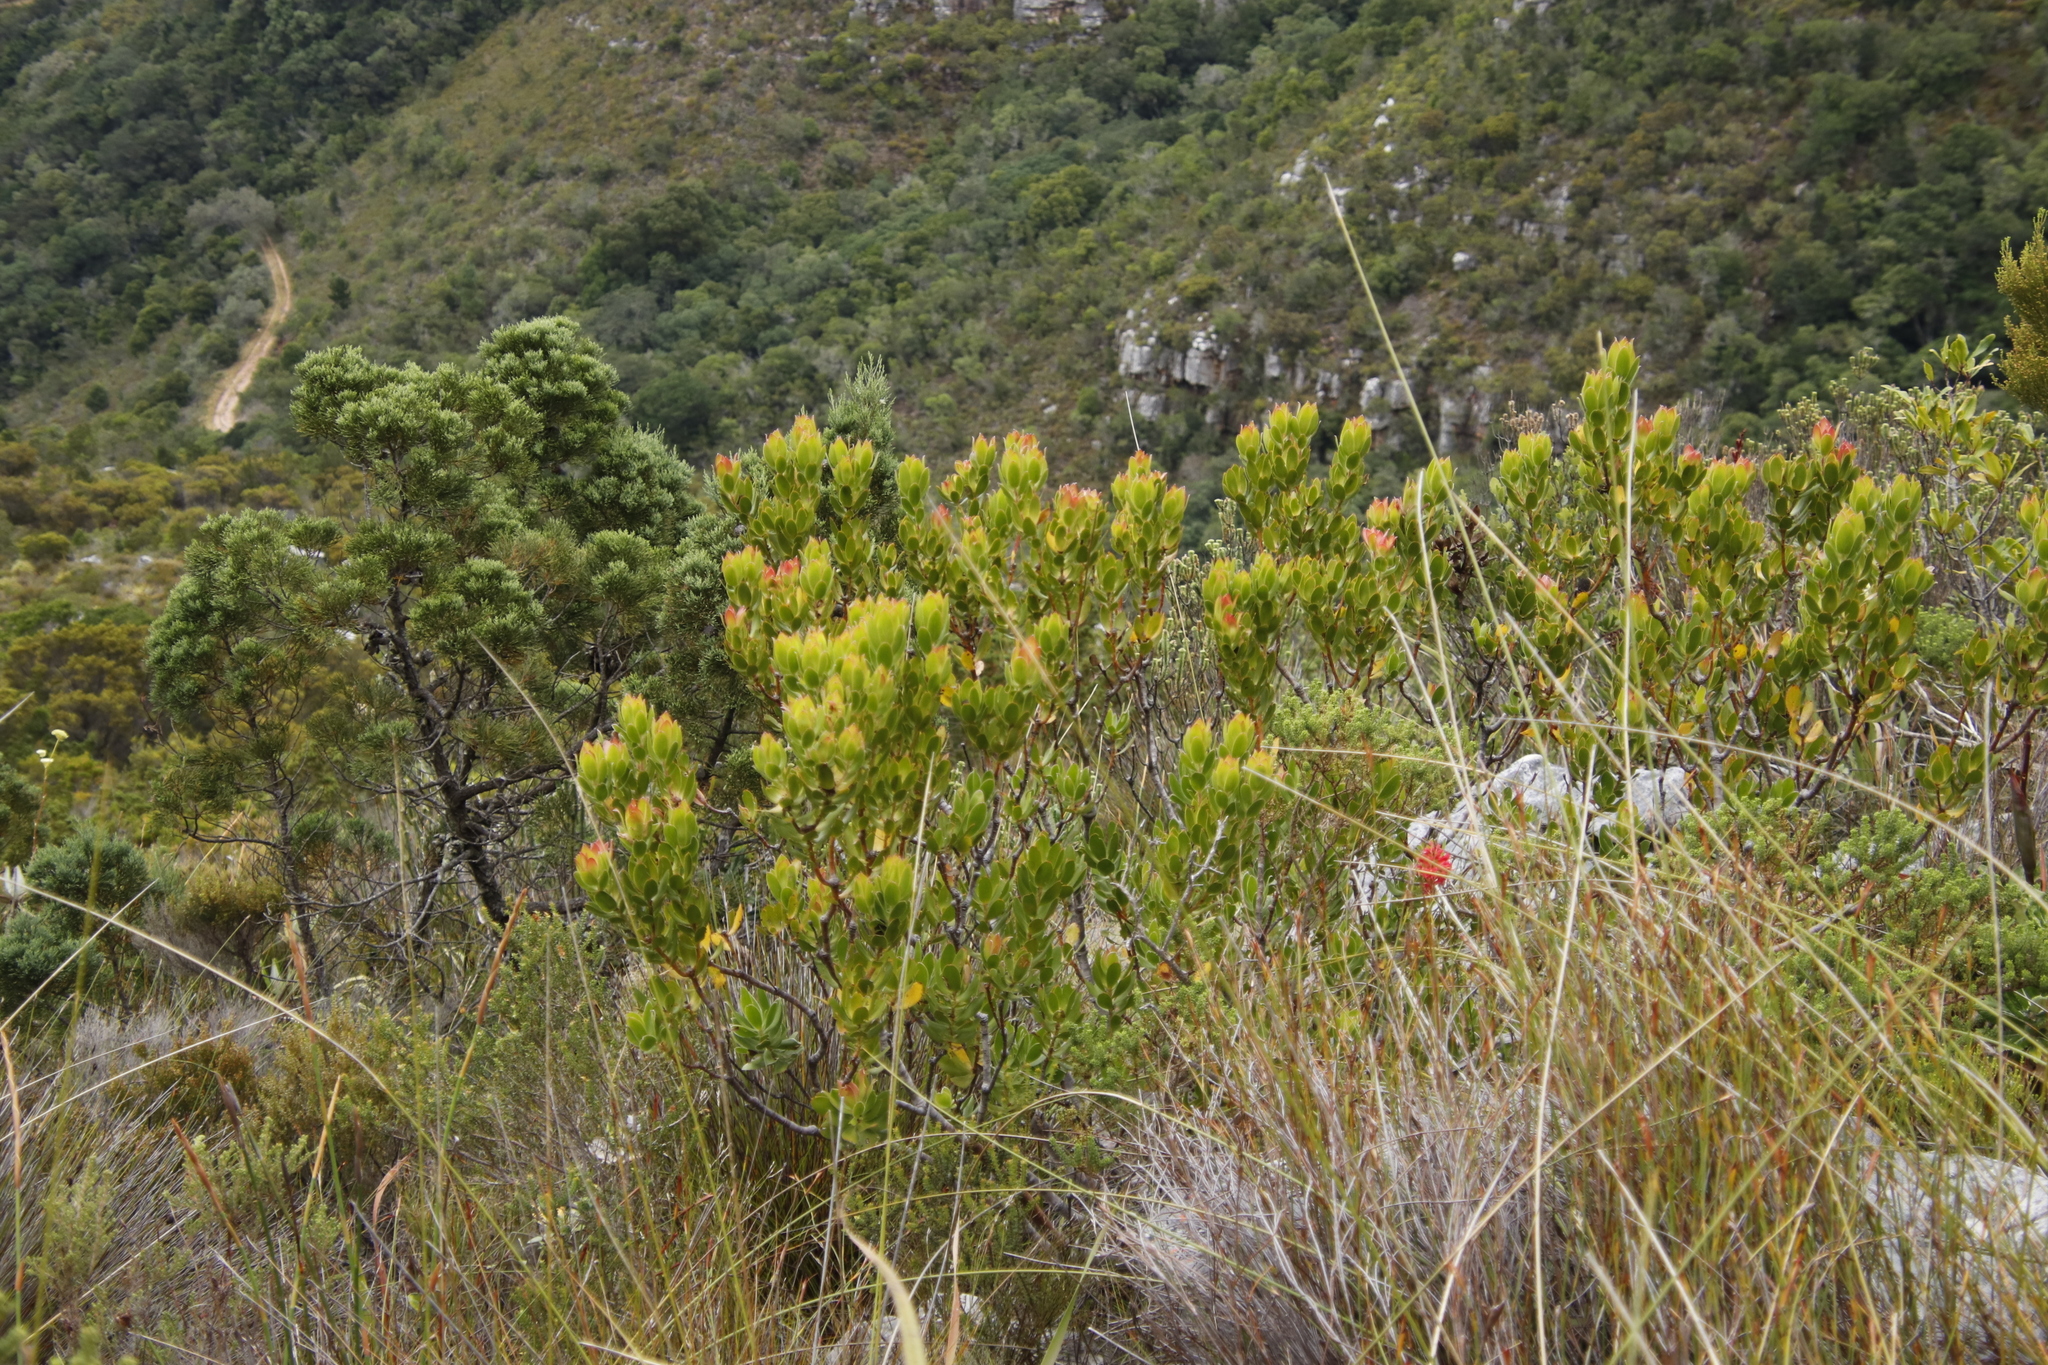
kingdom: Plantae
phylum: Tracheophyta
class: Magnoliopsida
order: Proteales
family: Proteaceae
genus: Leucadendron
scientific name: Leucadendron strobilinum
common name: Mountain rose
